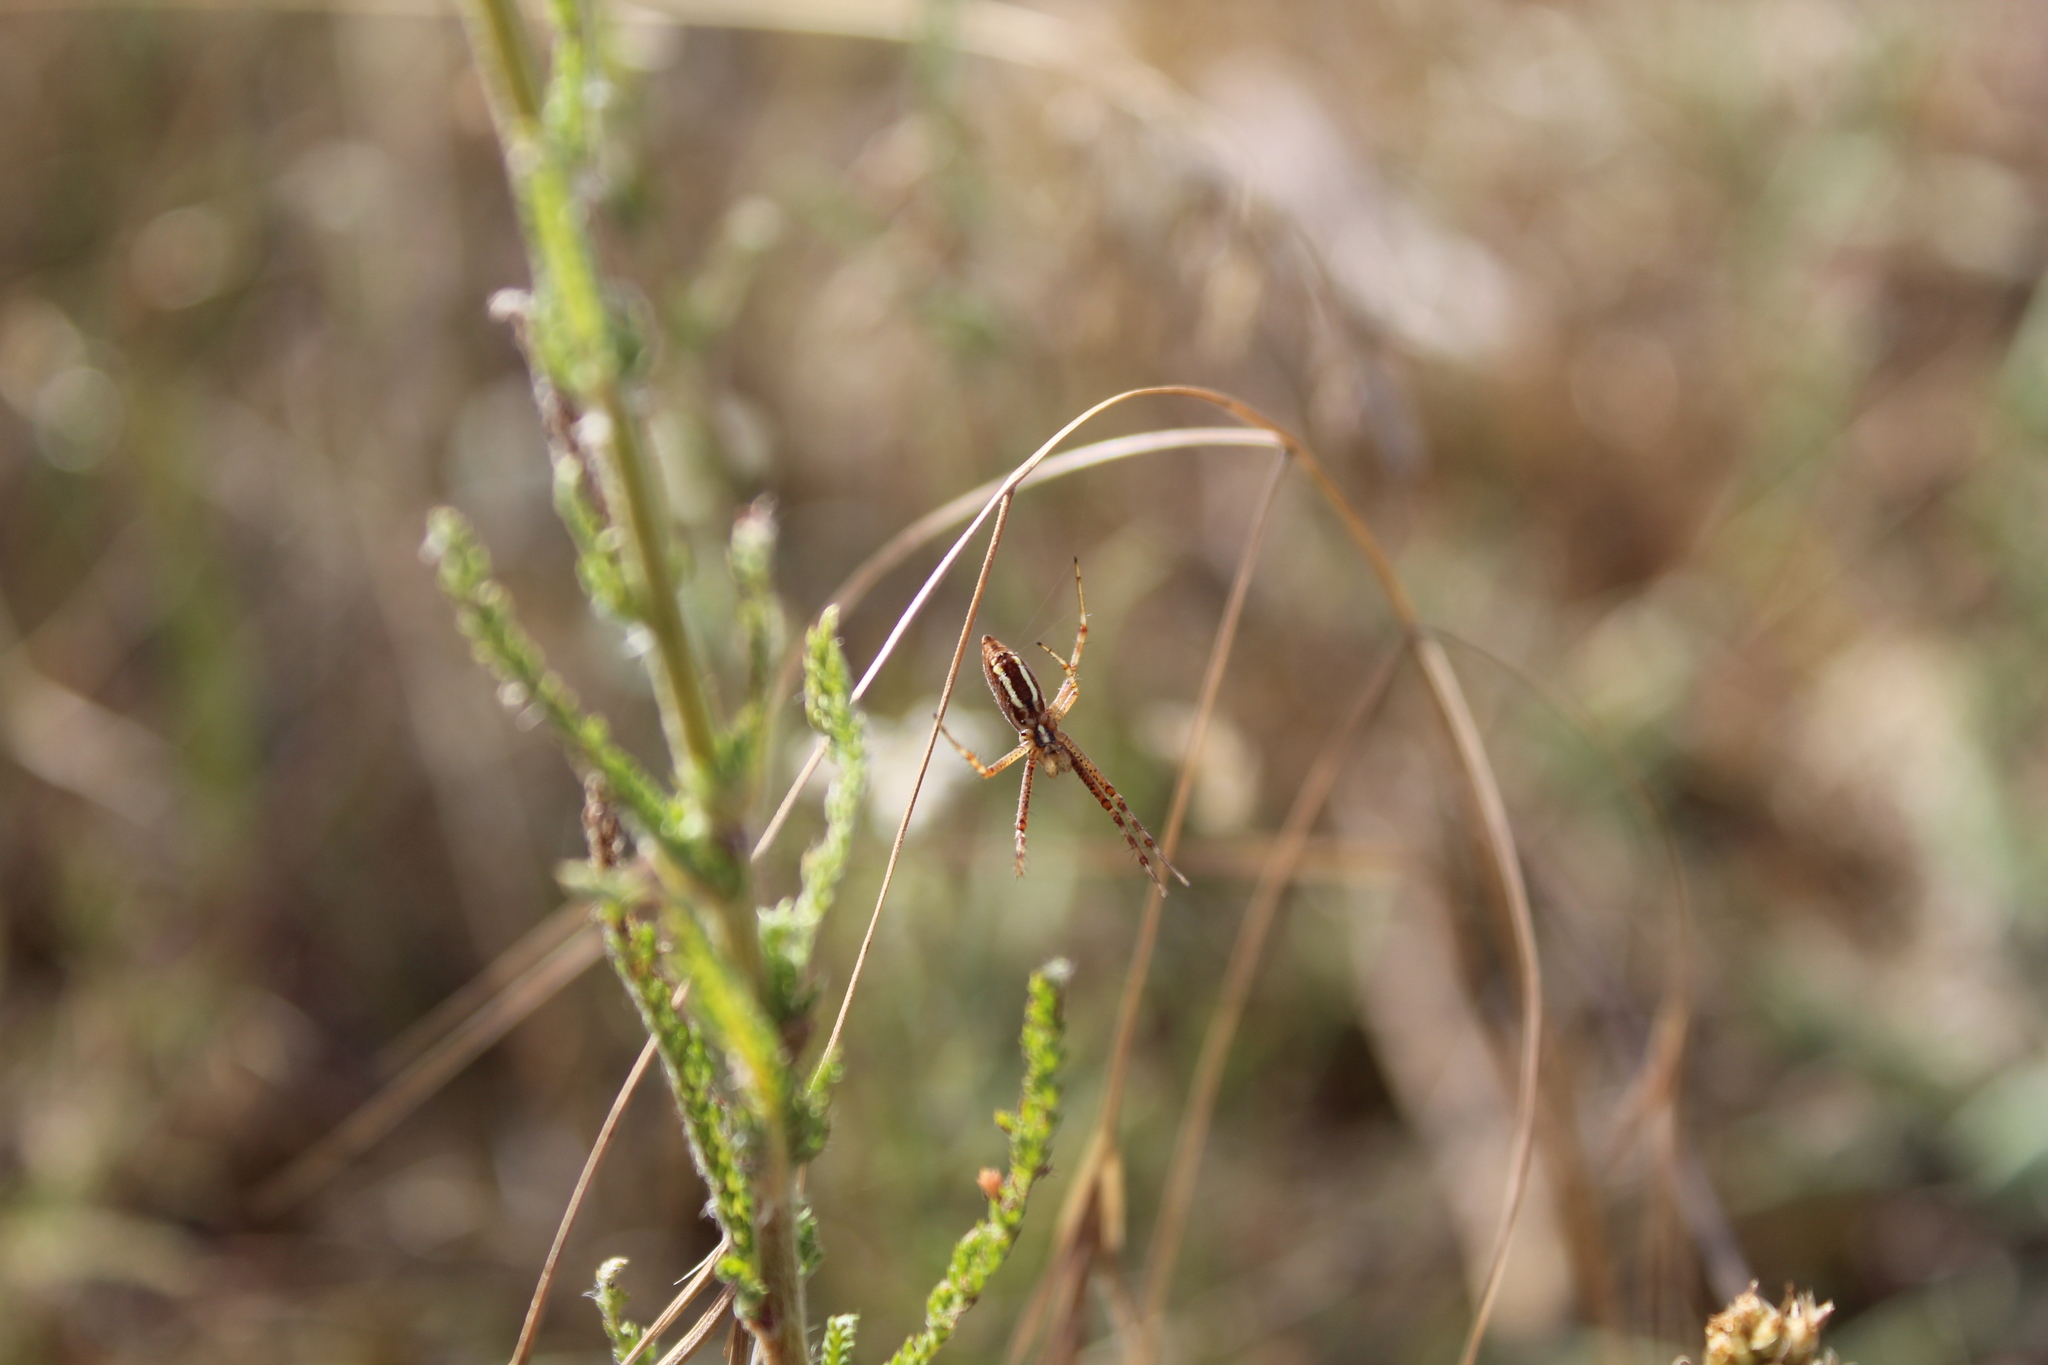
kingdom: Animalia
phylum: Arthropoda
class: Arachnida
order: Araneae
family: Araneidae
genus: Argiope
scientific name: Argiope bruennichi
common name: Wasp spider
